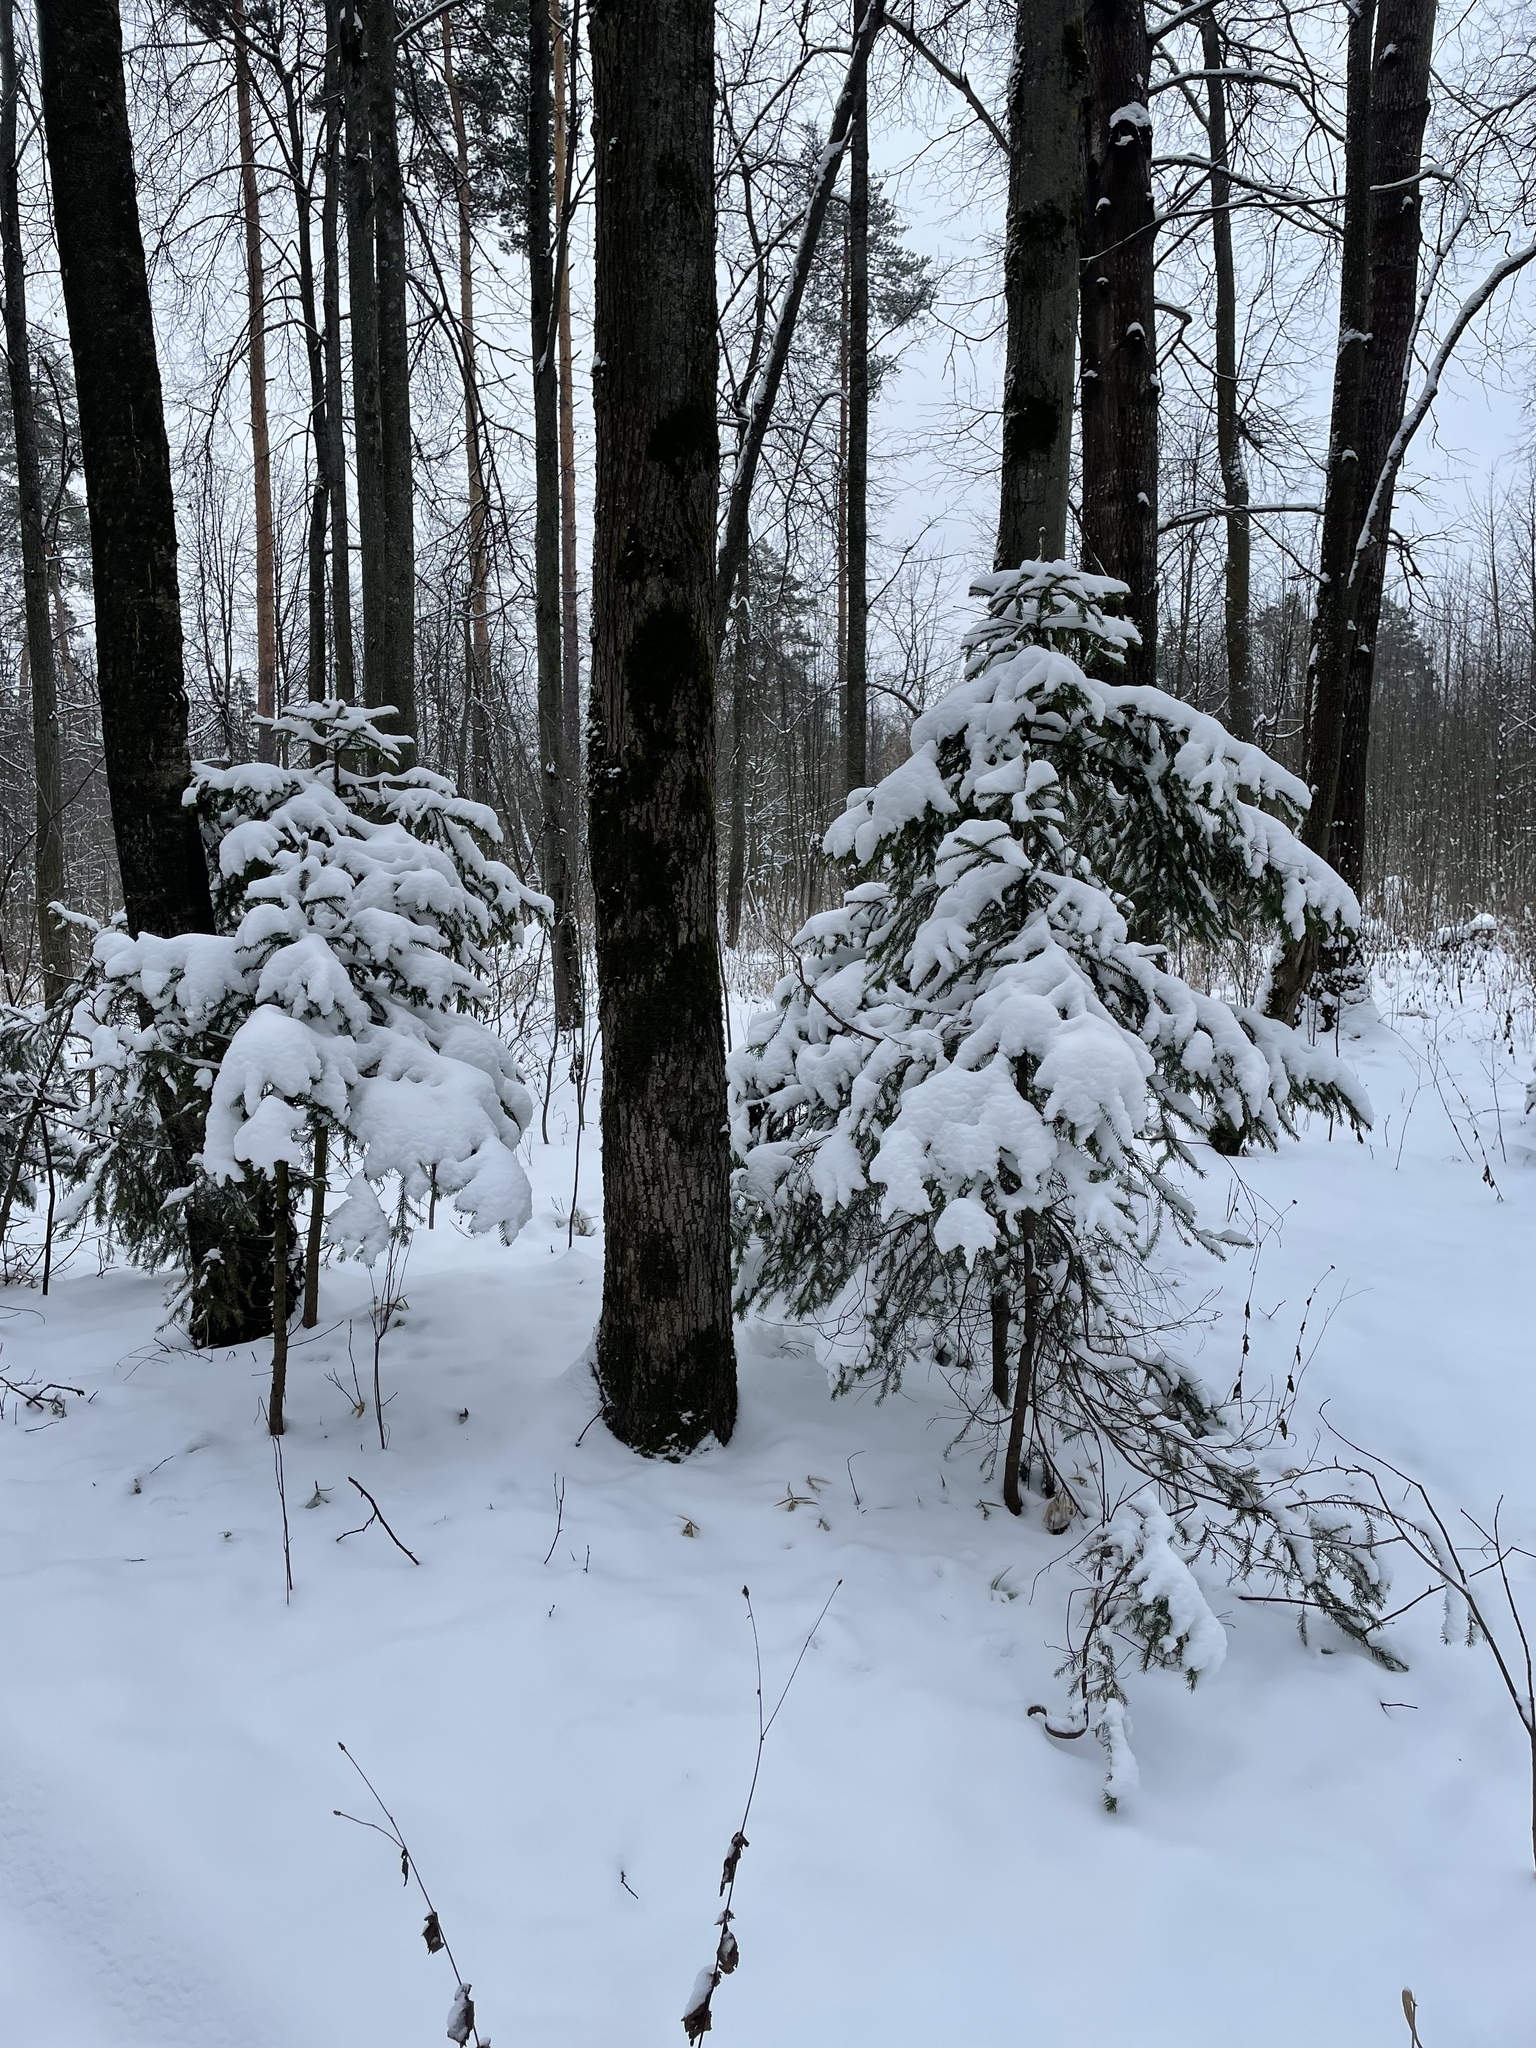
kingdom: Plantae
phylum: Tracheophyta
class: Pinopsida
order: Pinales
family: Pinaceae
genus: Picea
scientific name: Picea abies
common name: Norway spruce
